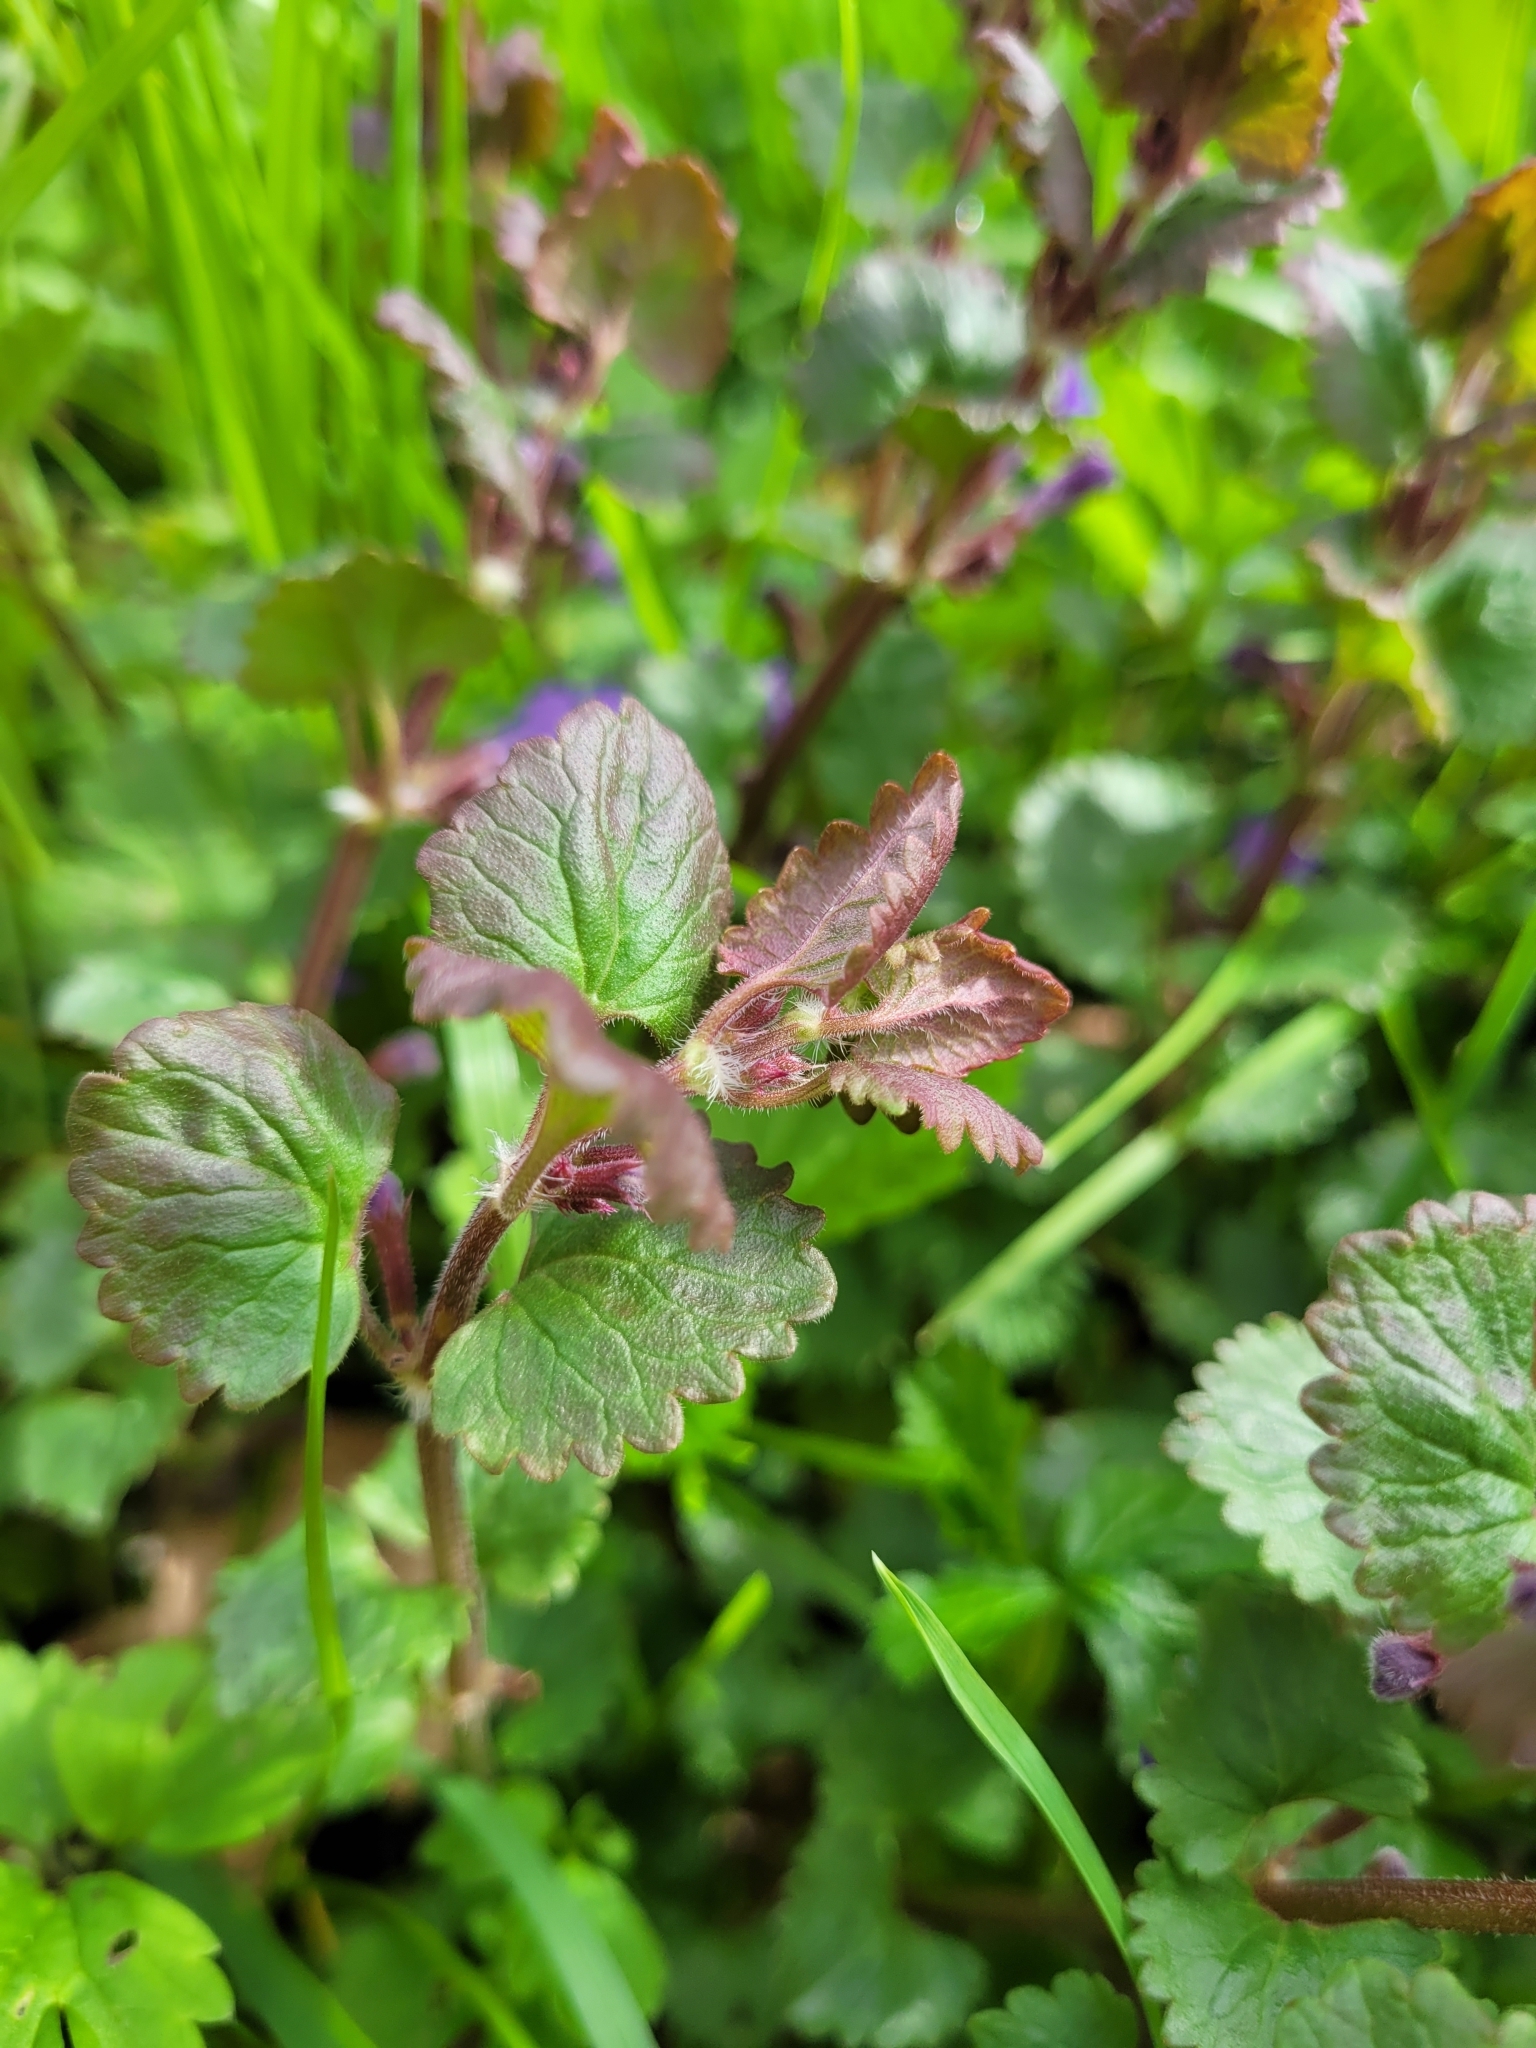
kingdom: Plantae
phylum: Tracheophyta
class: Magnoliopsida
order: Lamiales
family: Lamiaceae
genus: Glechoma
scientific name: Glechoma hederacea
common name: Ground ivy
